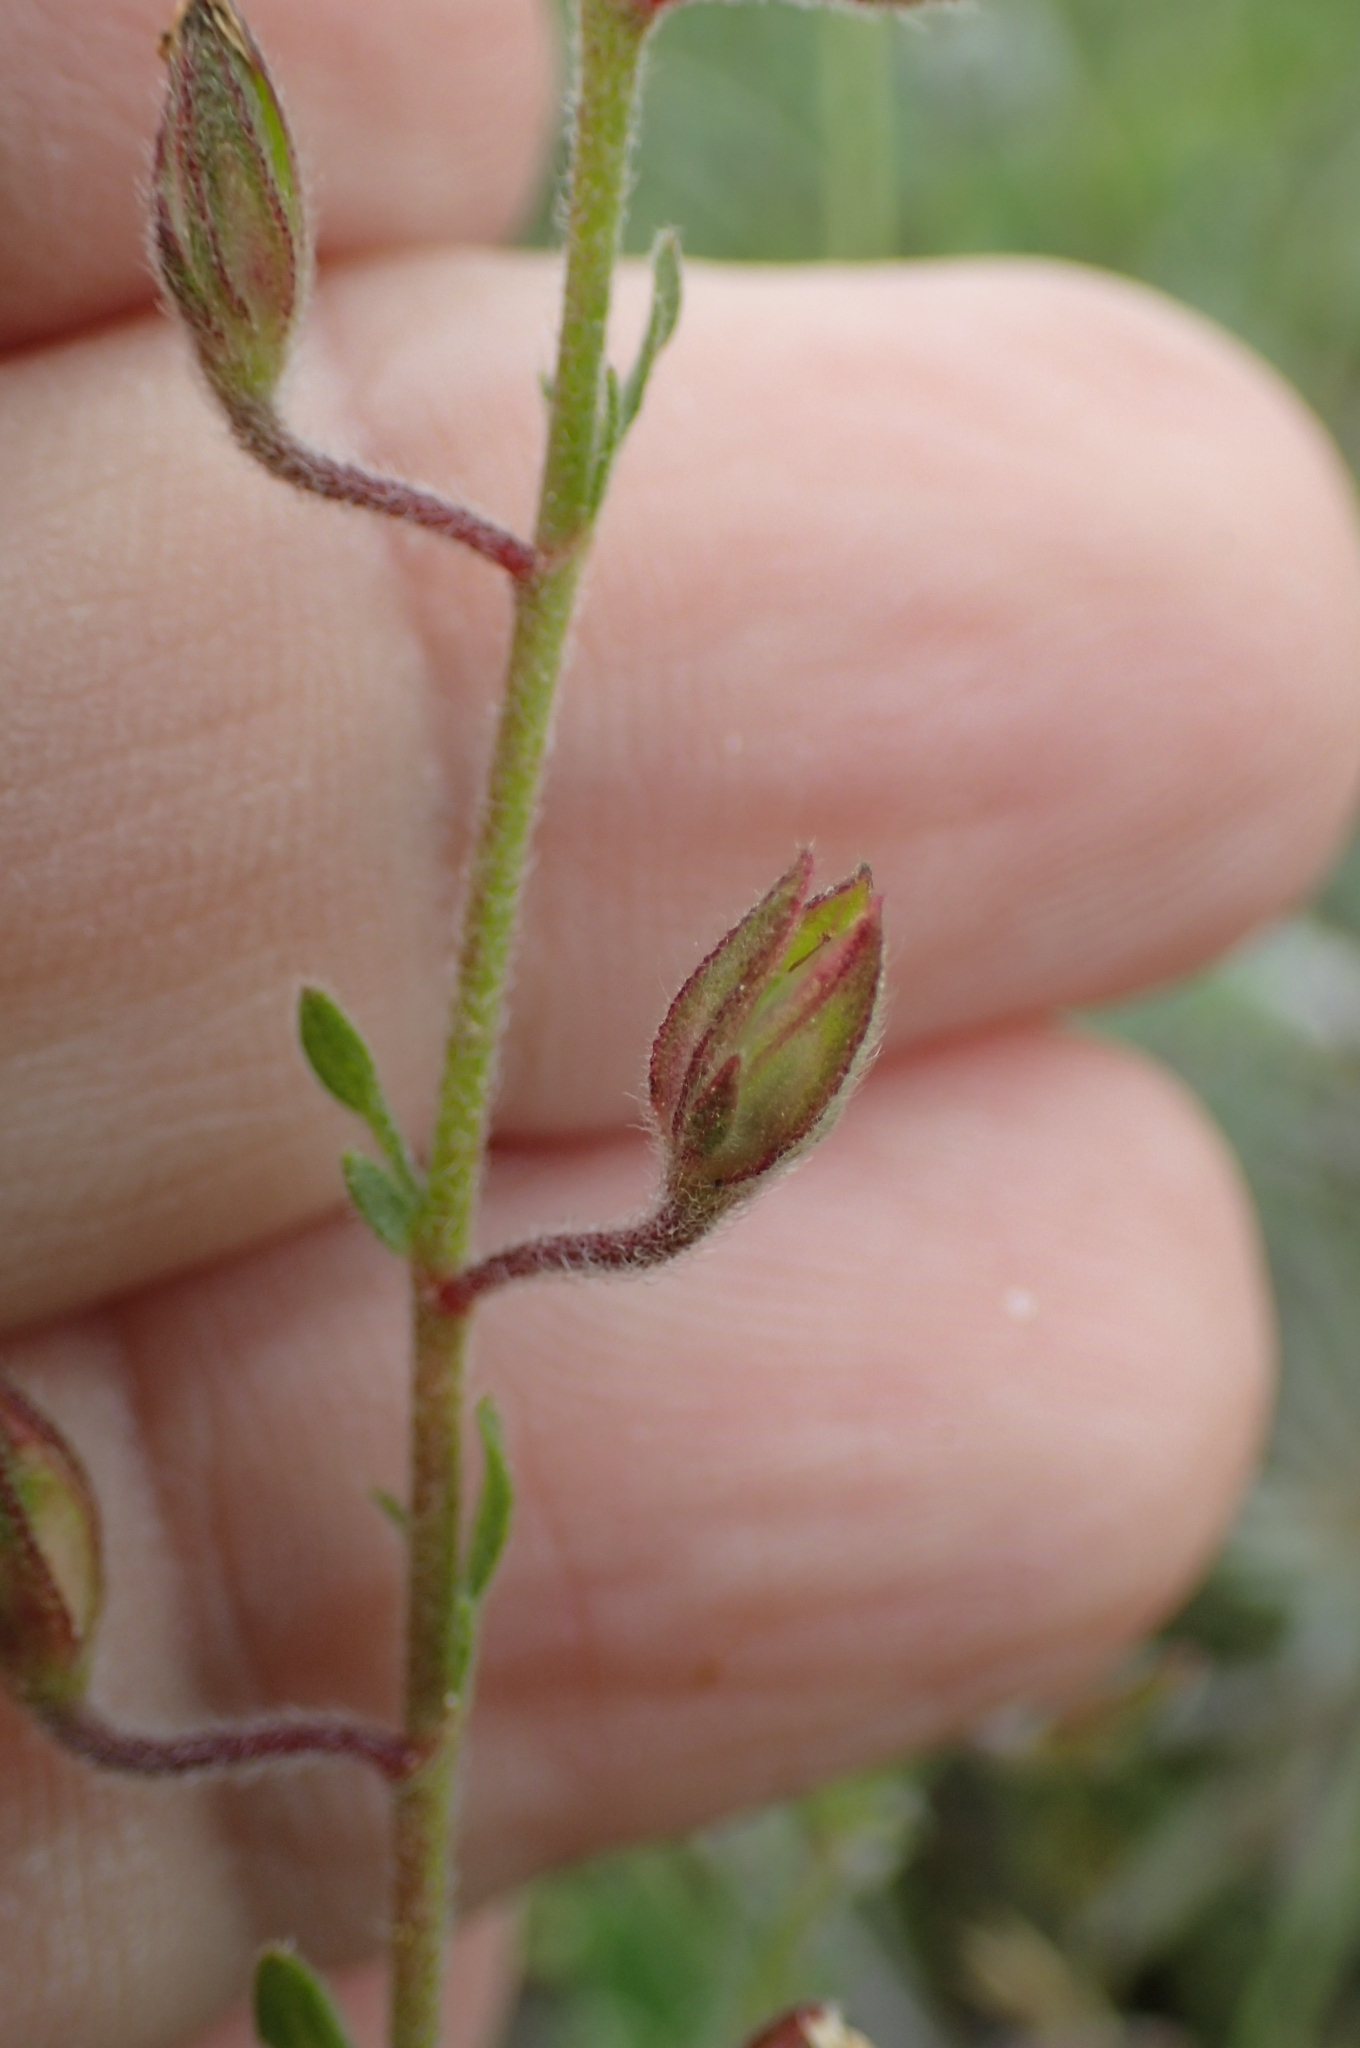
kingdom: Plantae
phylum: Tracheophyta
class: Magnoliopsida
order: Malvales
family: Cistaceae
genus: Helianthemum
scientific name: Helianthemum salicifolium
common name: Willowleaf frostweed
